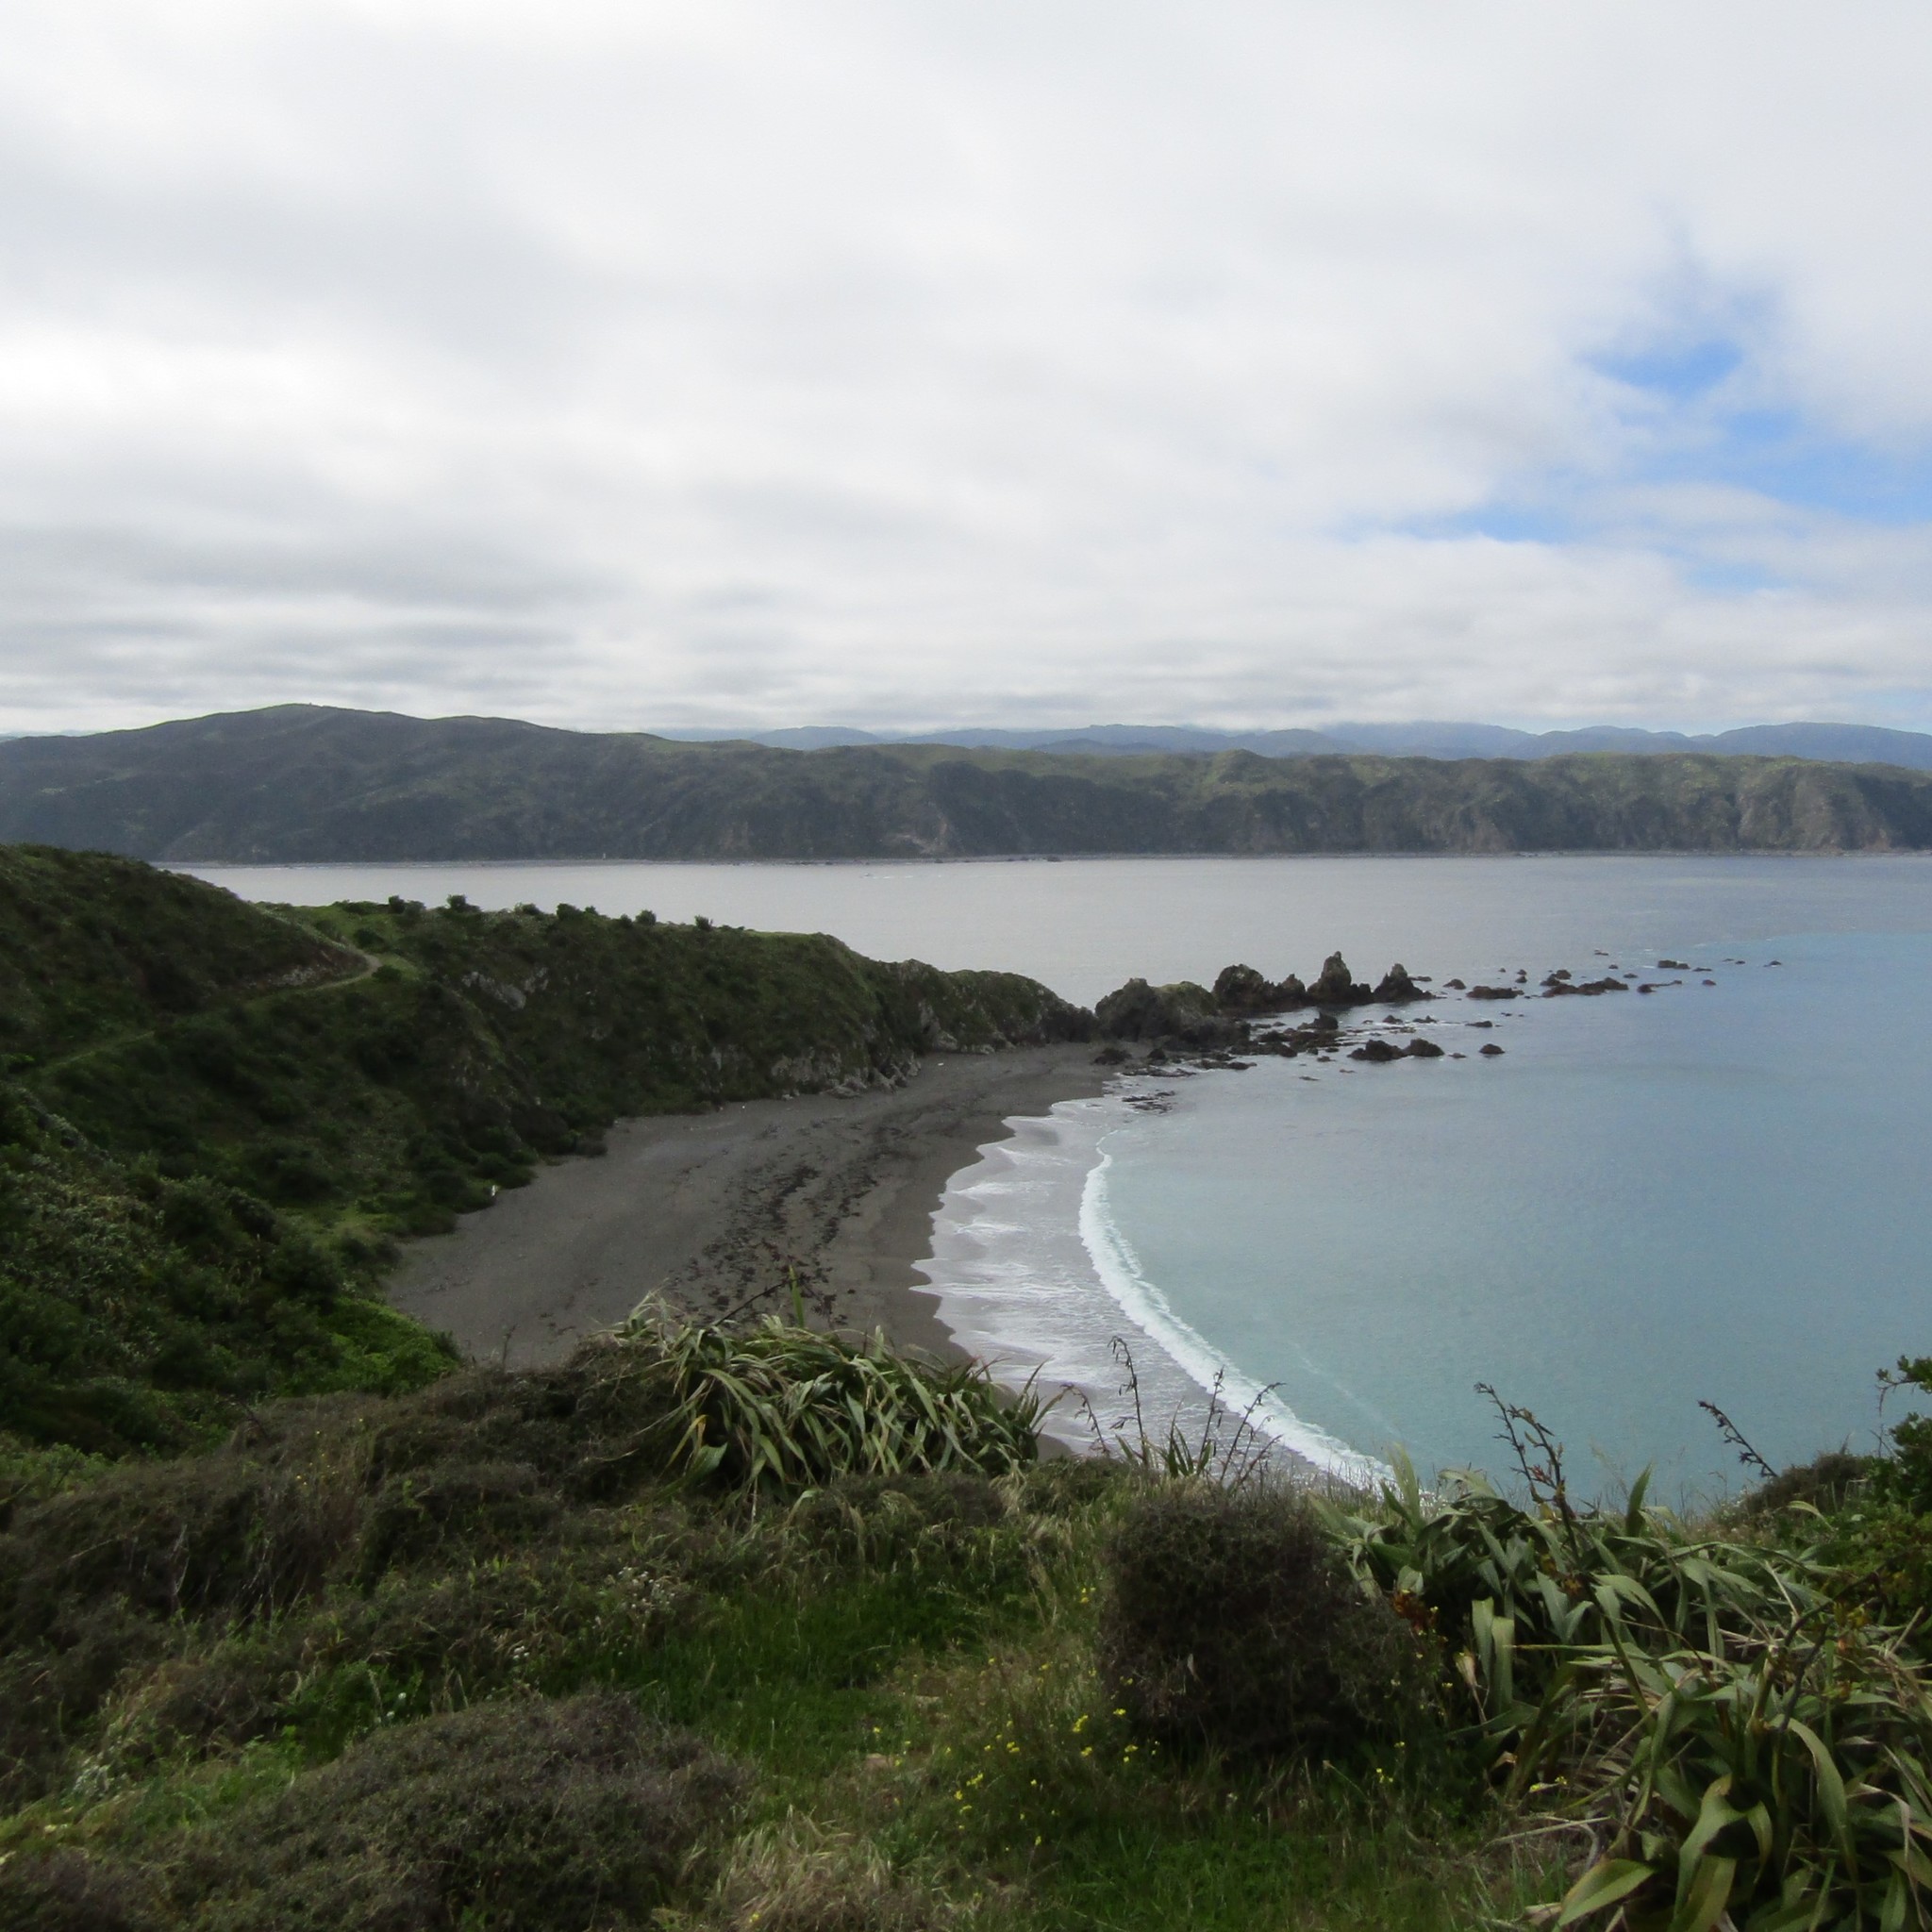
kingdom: Plantae
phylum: Tracheophyta
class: Liliopsida
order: Asparagales
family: Asphodelaceae
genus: Phormium
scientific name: Phormium tenax
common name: New zealand flax
